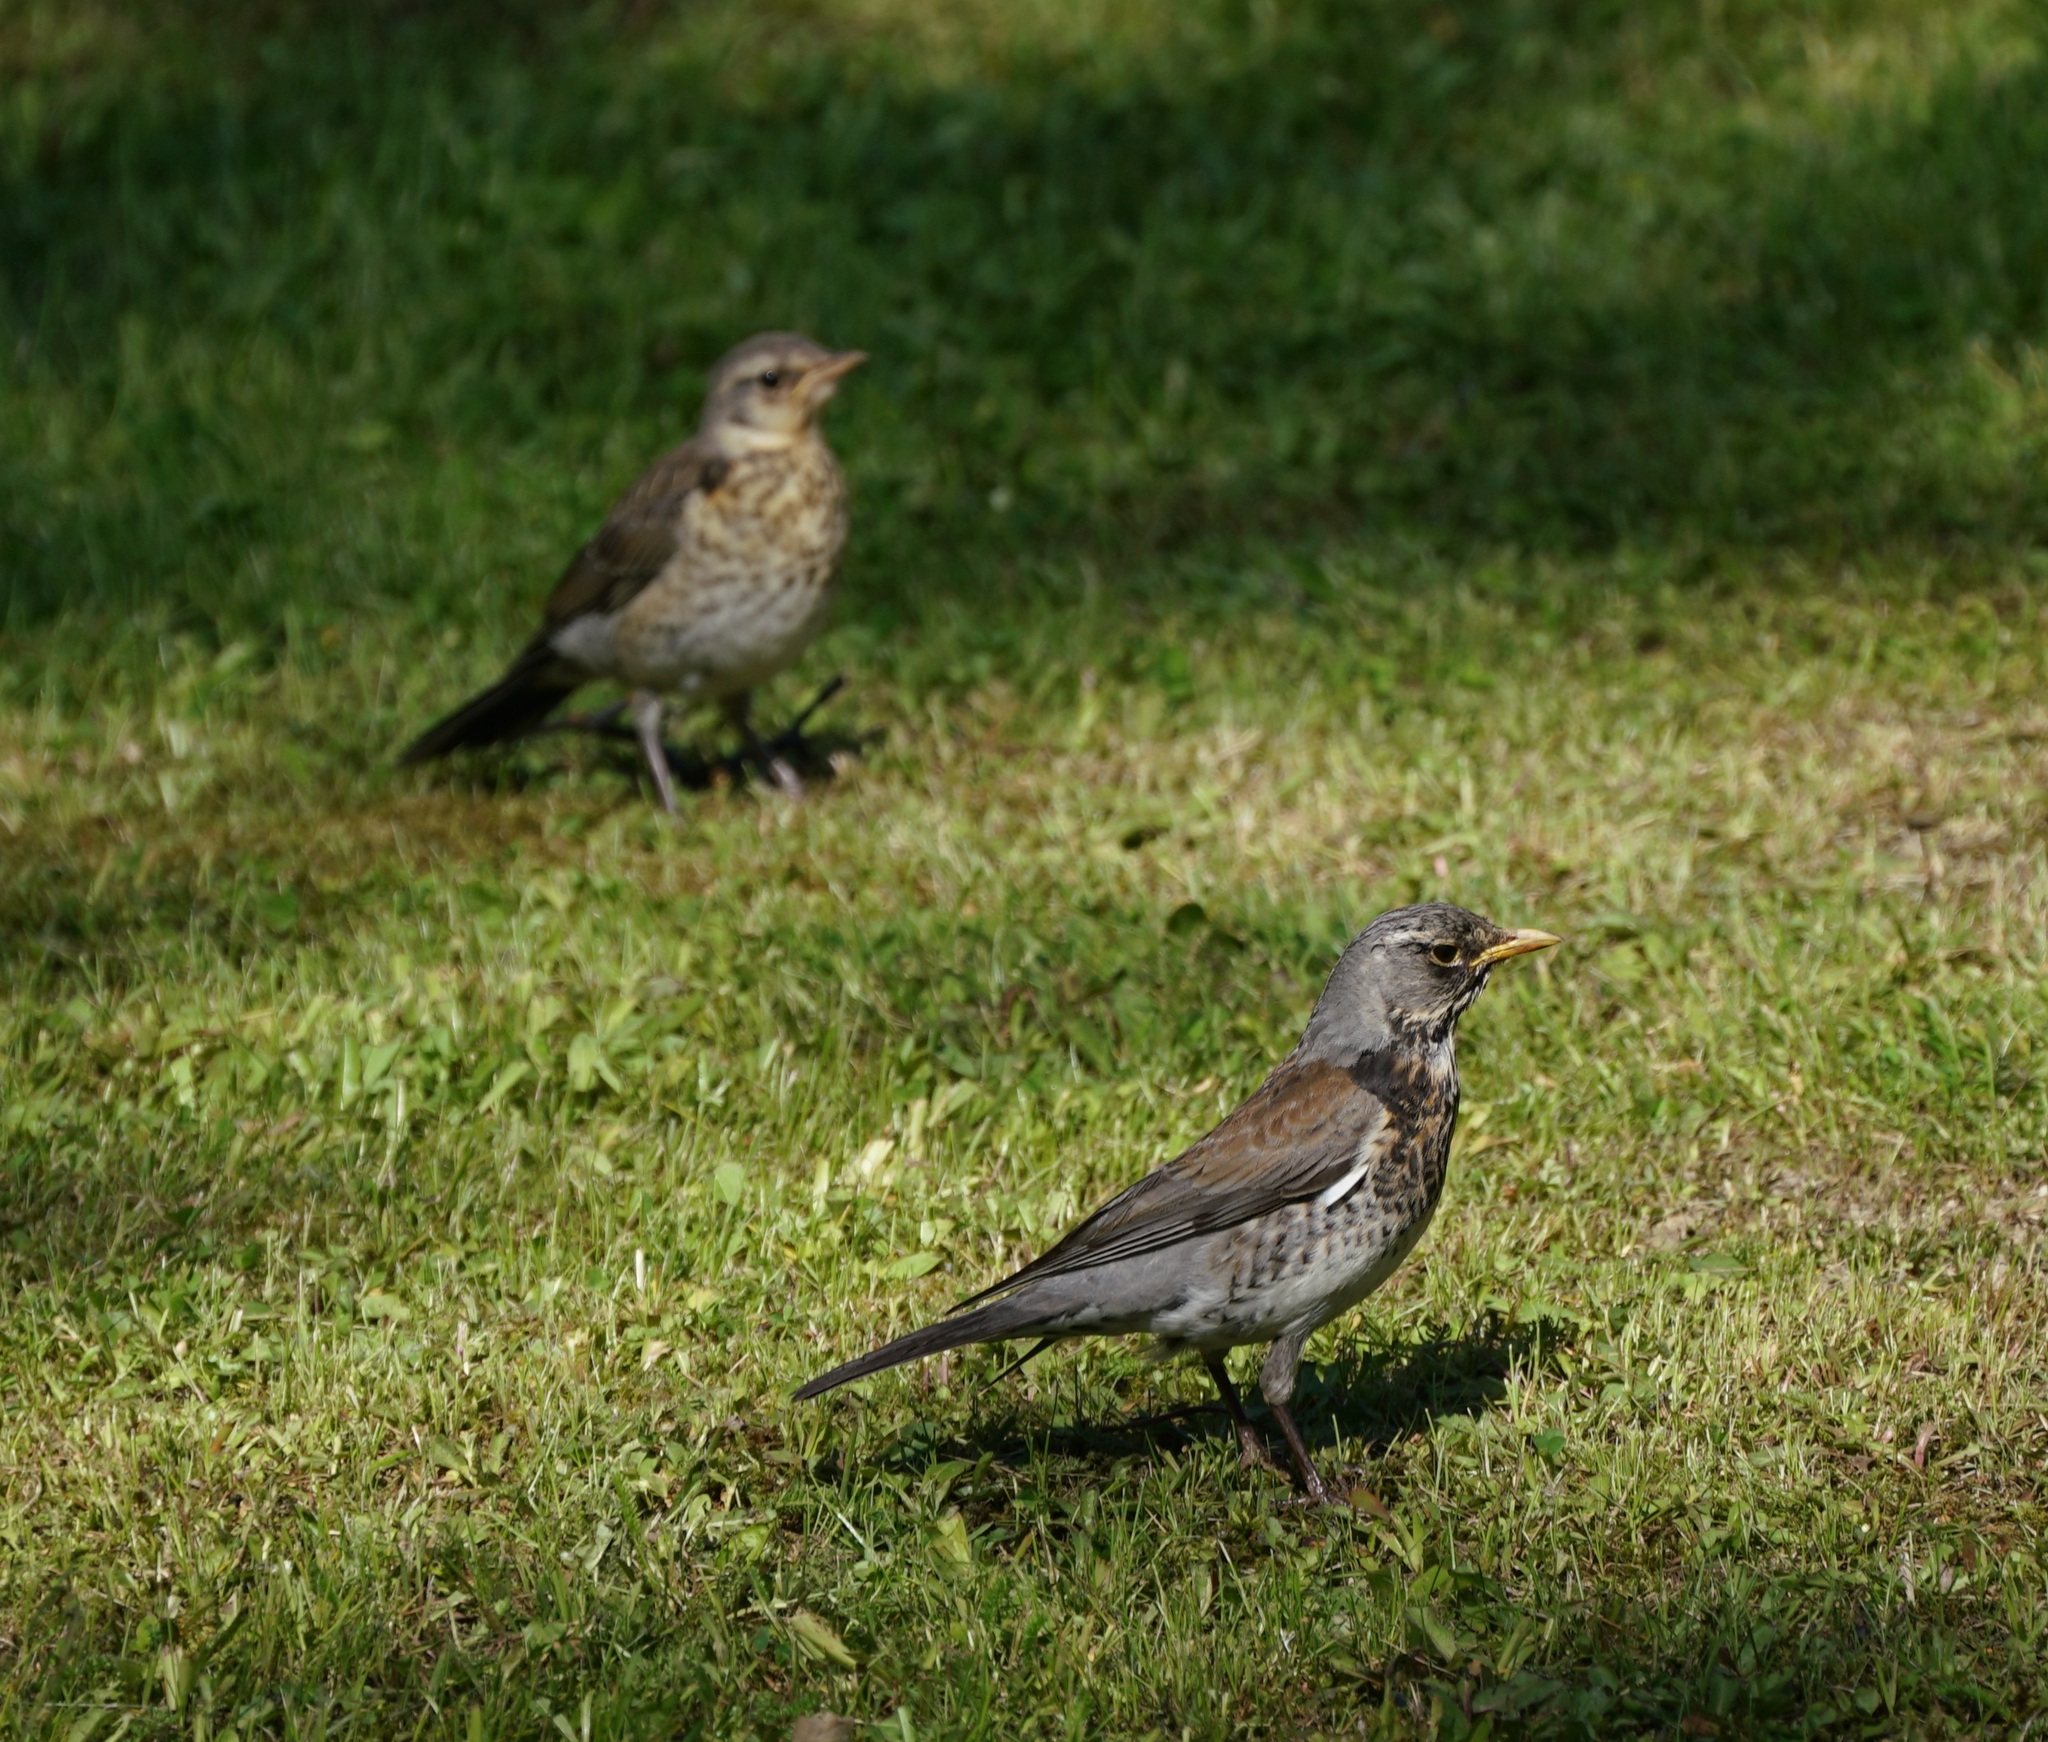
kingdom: Animalia
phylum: Chordata
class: Aves
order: Passeriformes
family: Turdidae
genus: Turdus
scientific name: Turdus pilaris
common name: Fieldfare
